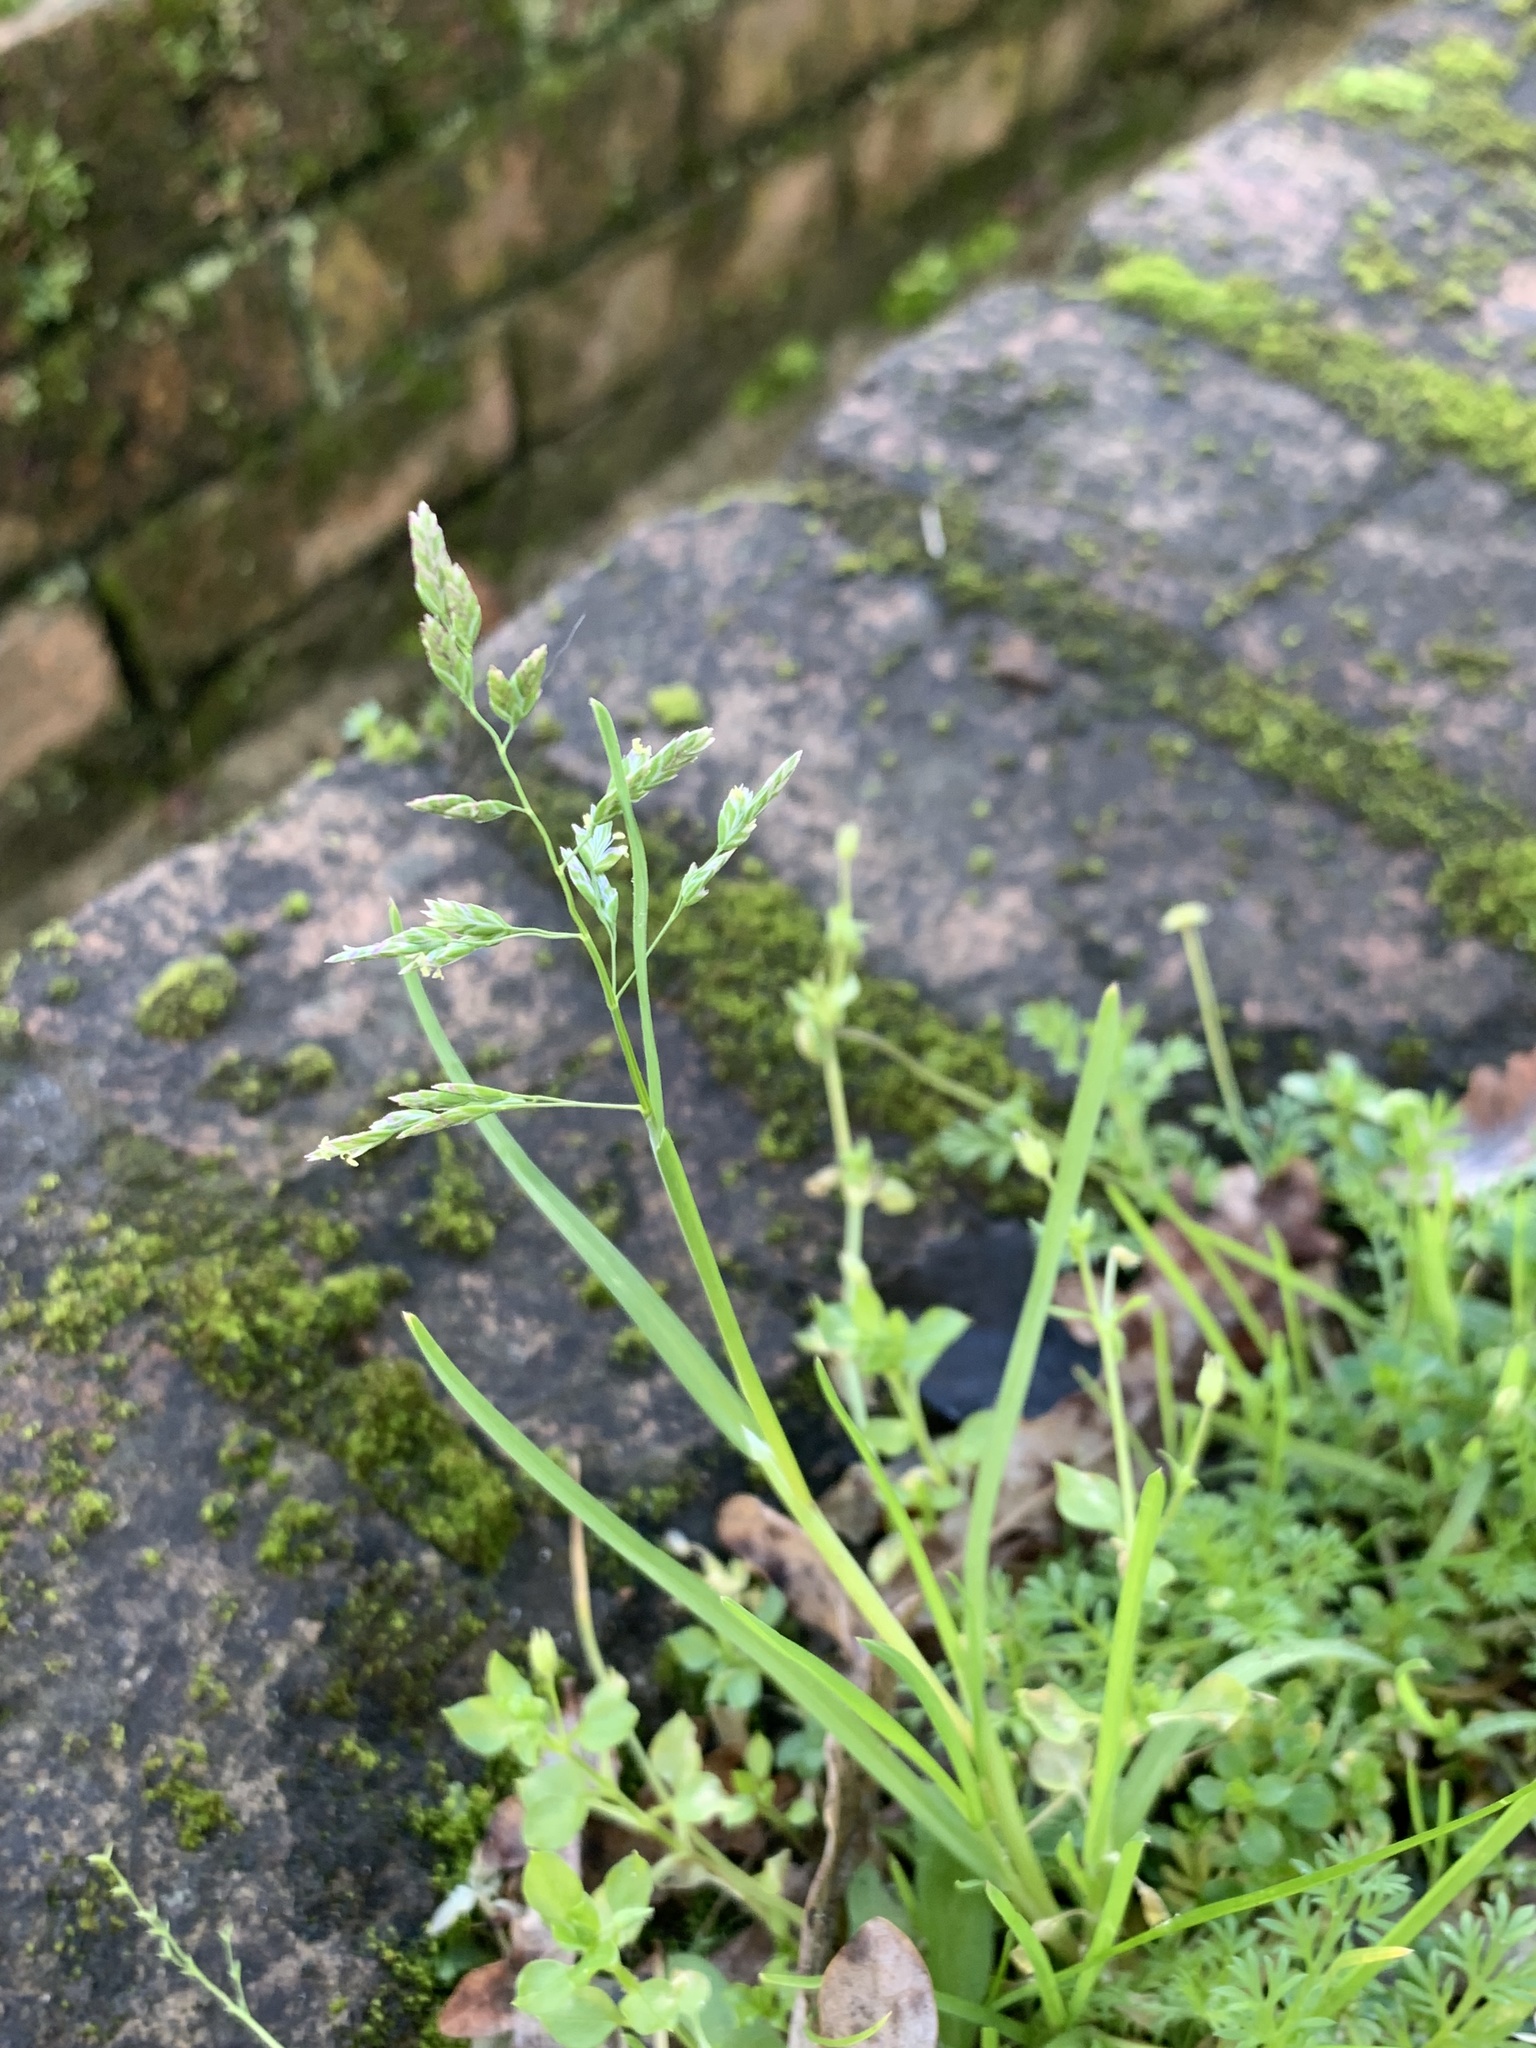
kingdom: Plantae
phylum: Tracheophyta
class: Liliopsida
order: Poales
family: Poaceae
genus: Poa
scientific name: Poa annua
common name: Annual bluegrass
